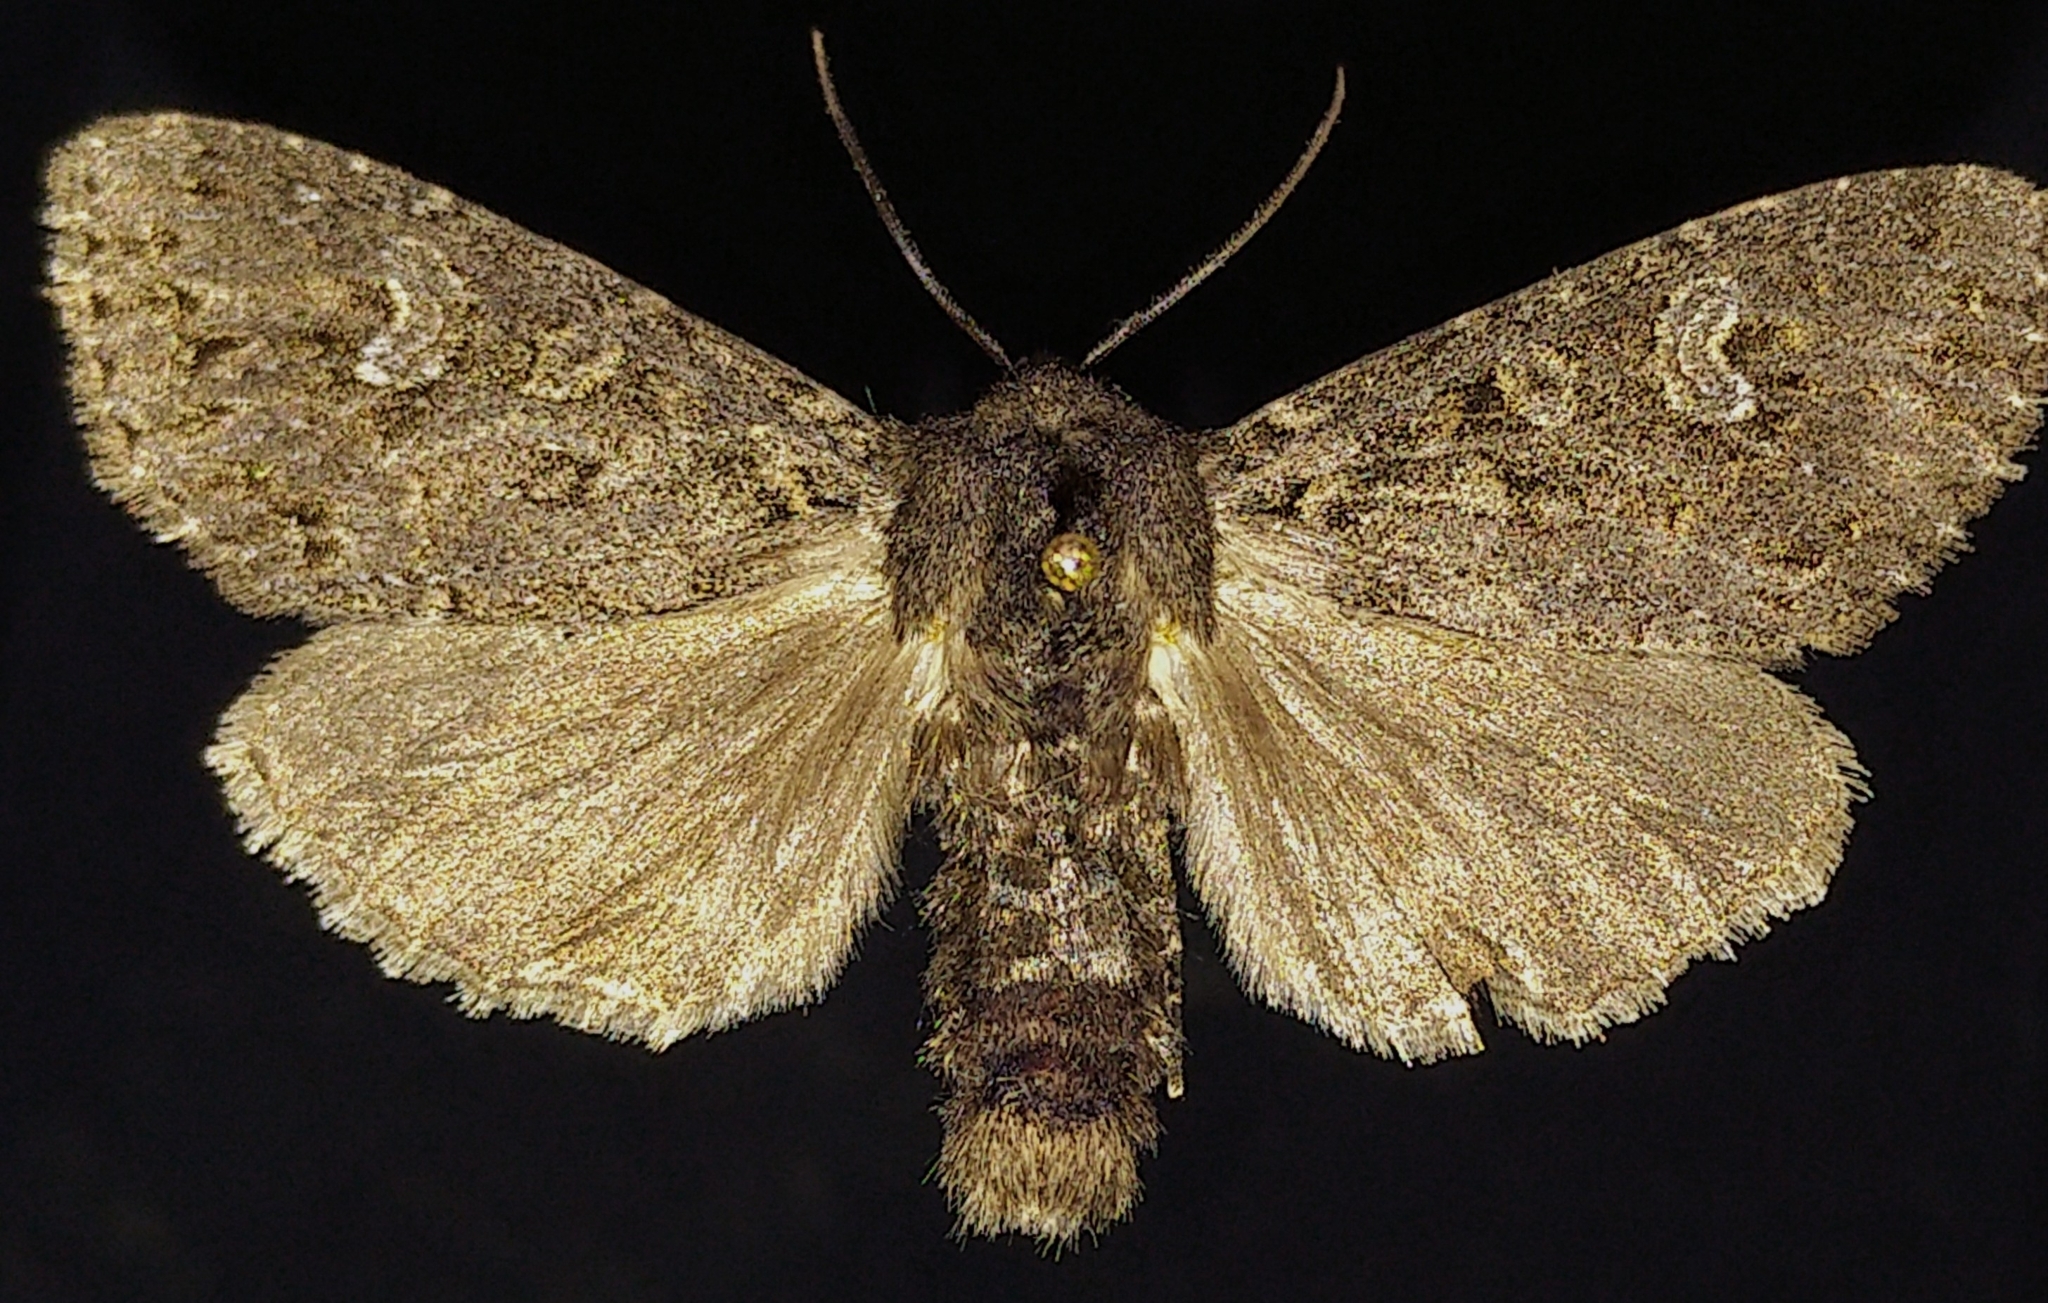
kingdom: Animalia
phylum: Arthropoda
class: Insecta
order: Lepidoptera
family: Noctuidae
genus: Polia
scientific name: Polia rogenhoferi
